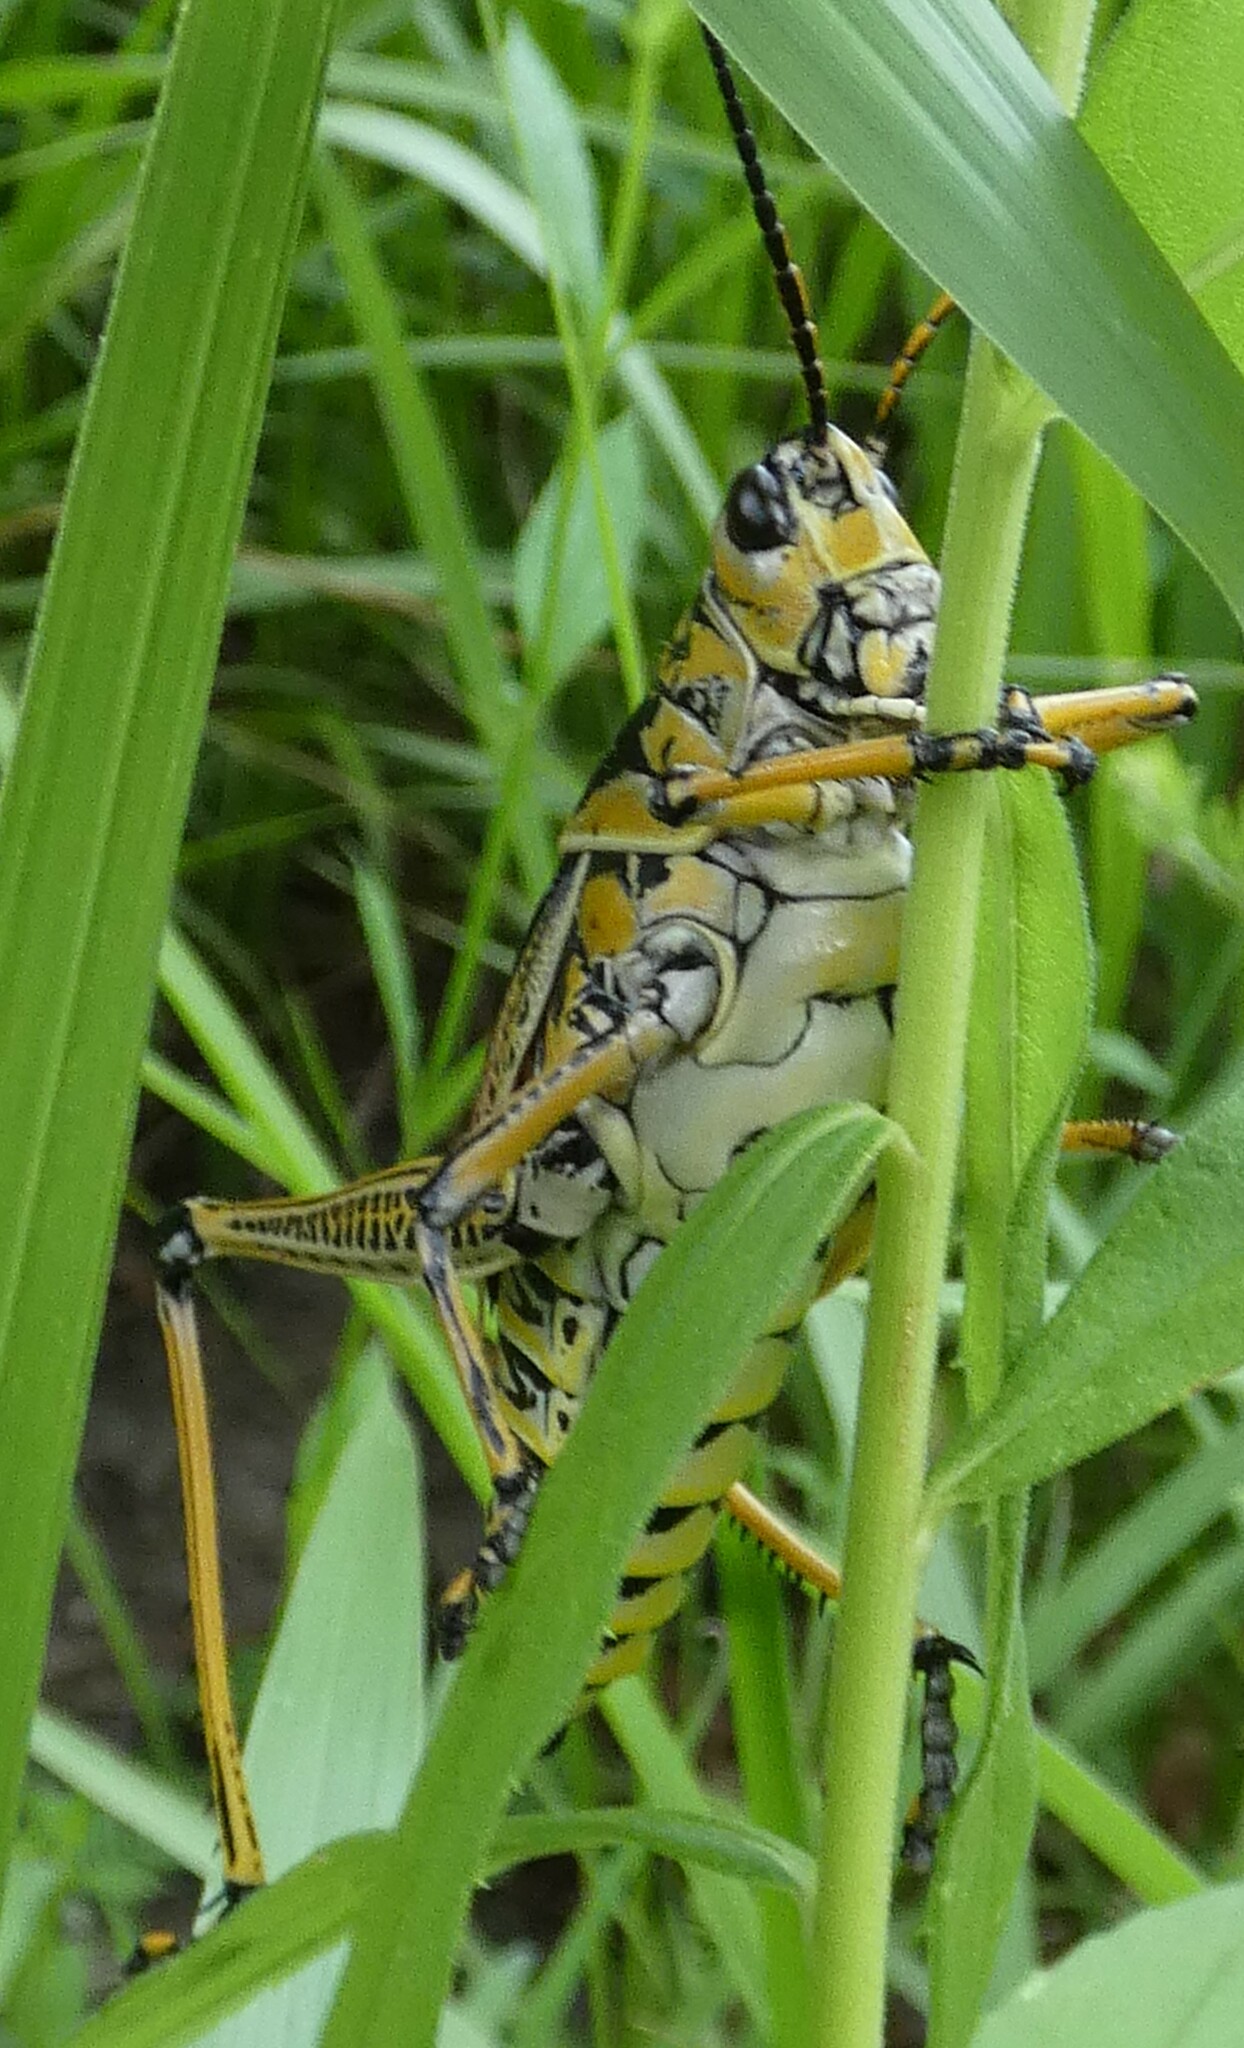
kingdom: Animalia
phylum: Arthropoda
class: Insecta
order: Orthoptera
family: Romaleidae
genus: Romalea
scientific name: Romalea microptera
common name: Eastern lubber grasshopper
